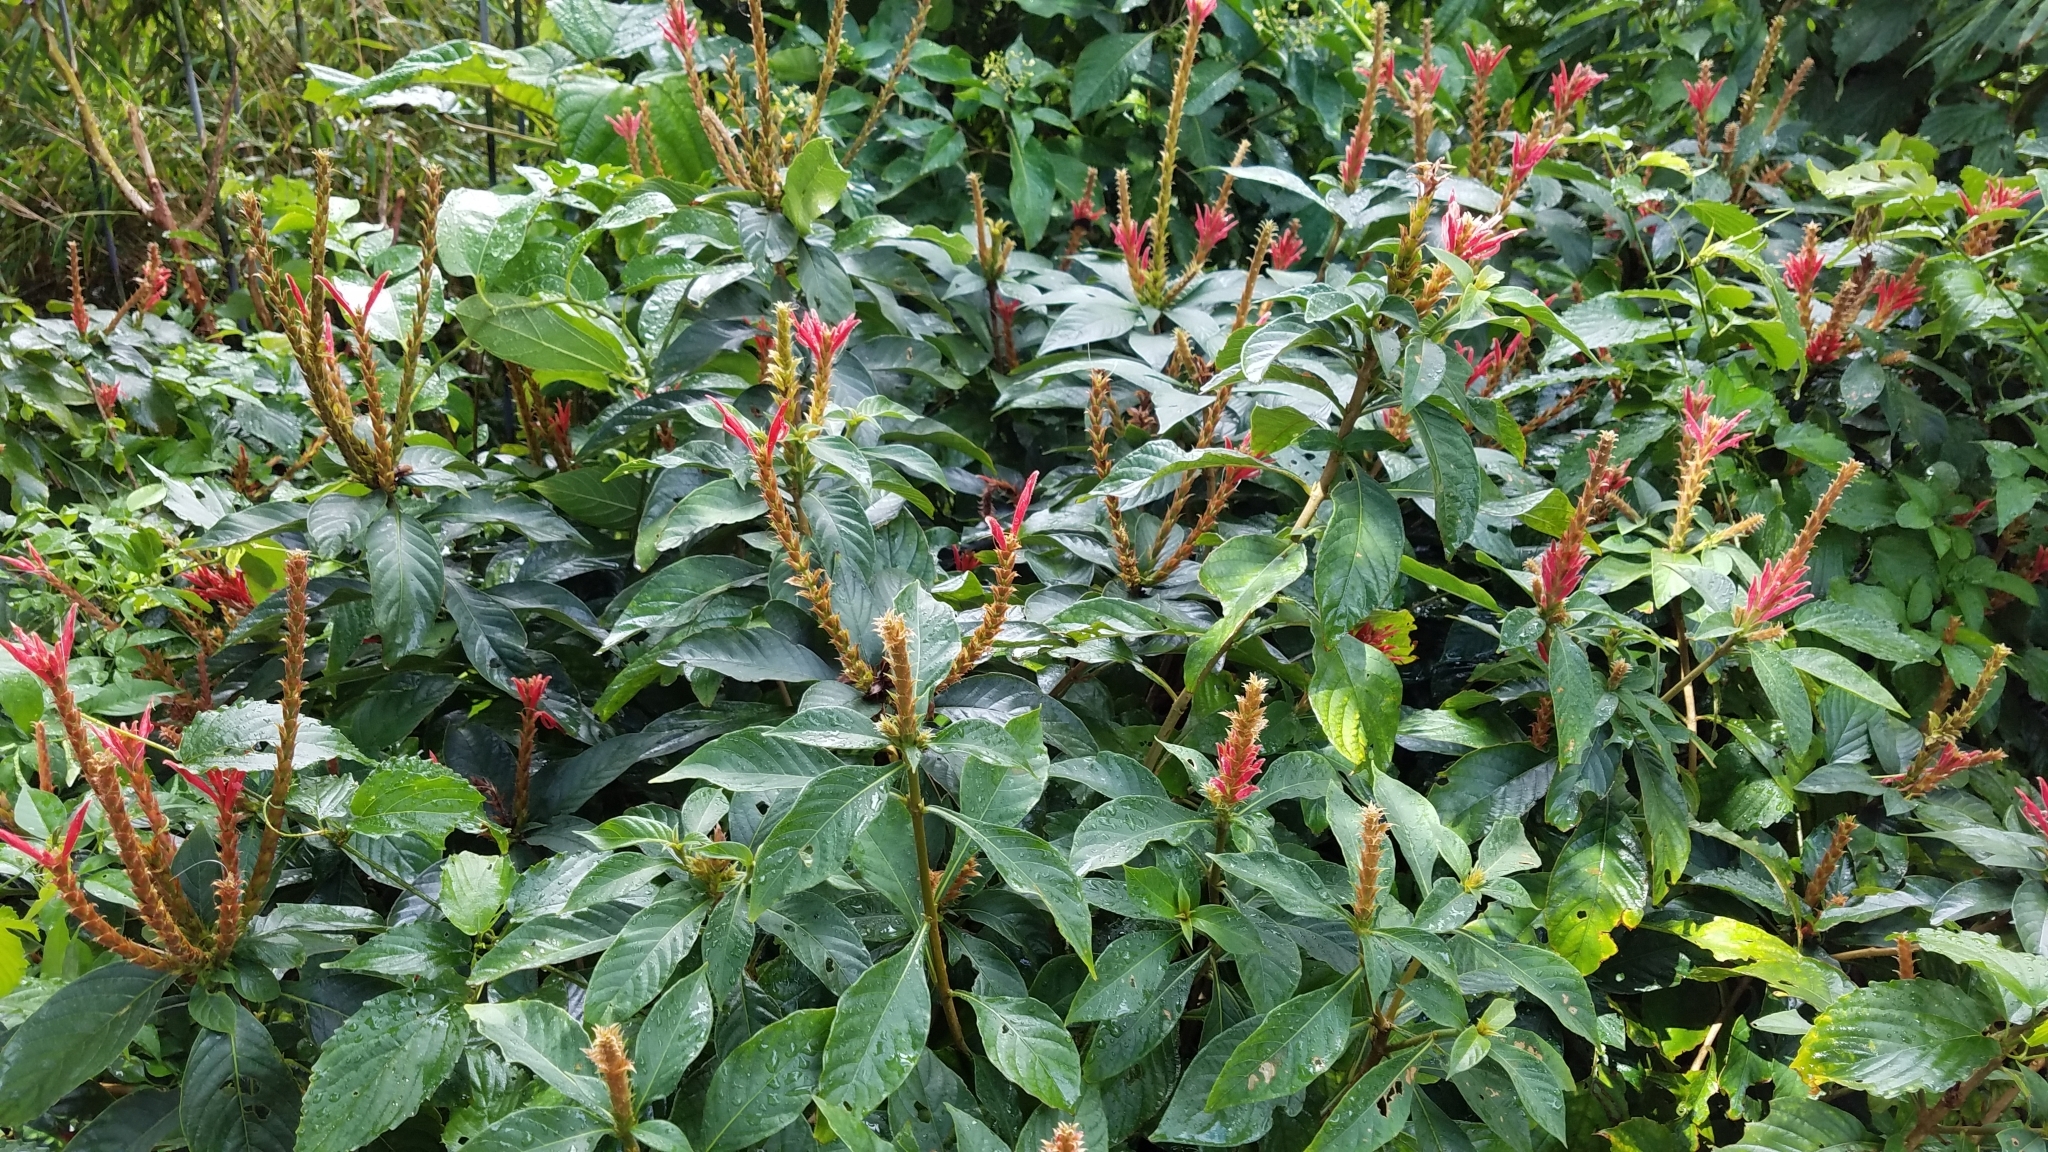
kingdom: Plantae
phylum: Tracheophyta
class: Magnoliopsida
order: Lamiales
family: Acanthaceae
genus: Aphelandra
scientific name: Aphelandra scabra
